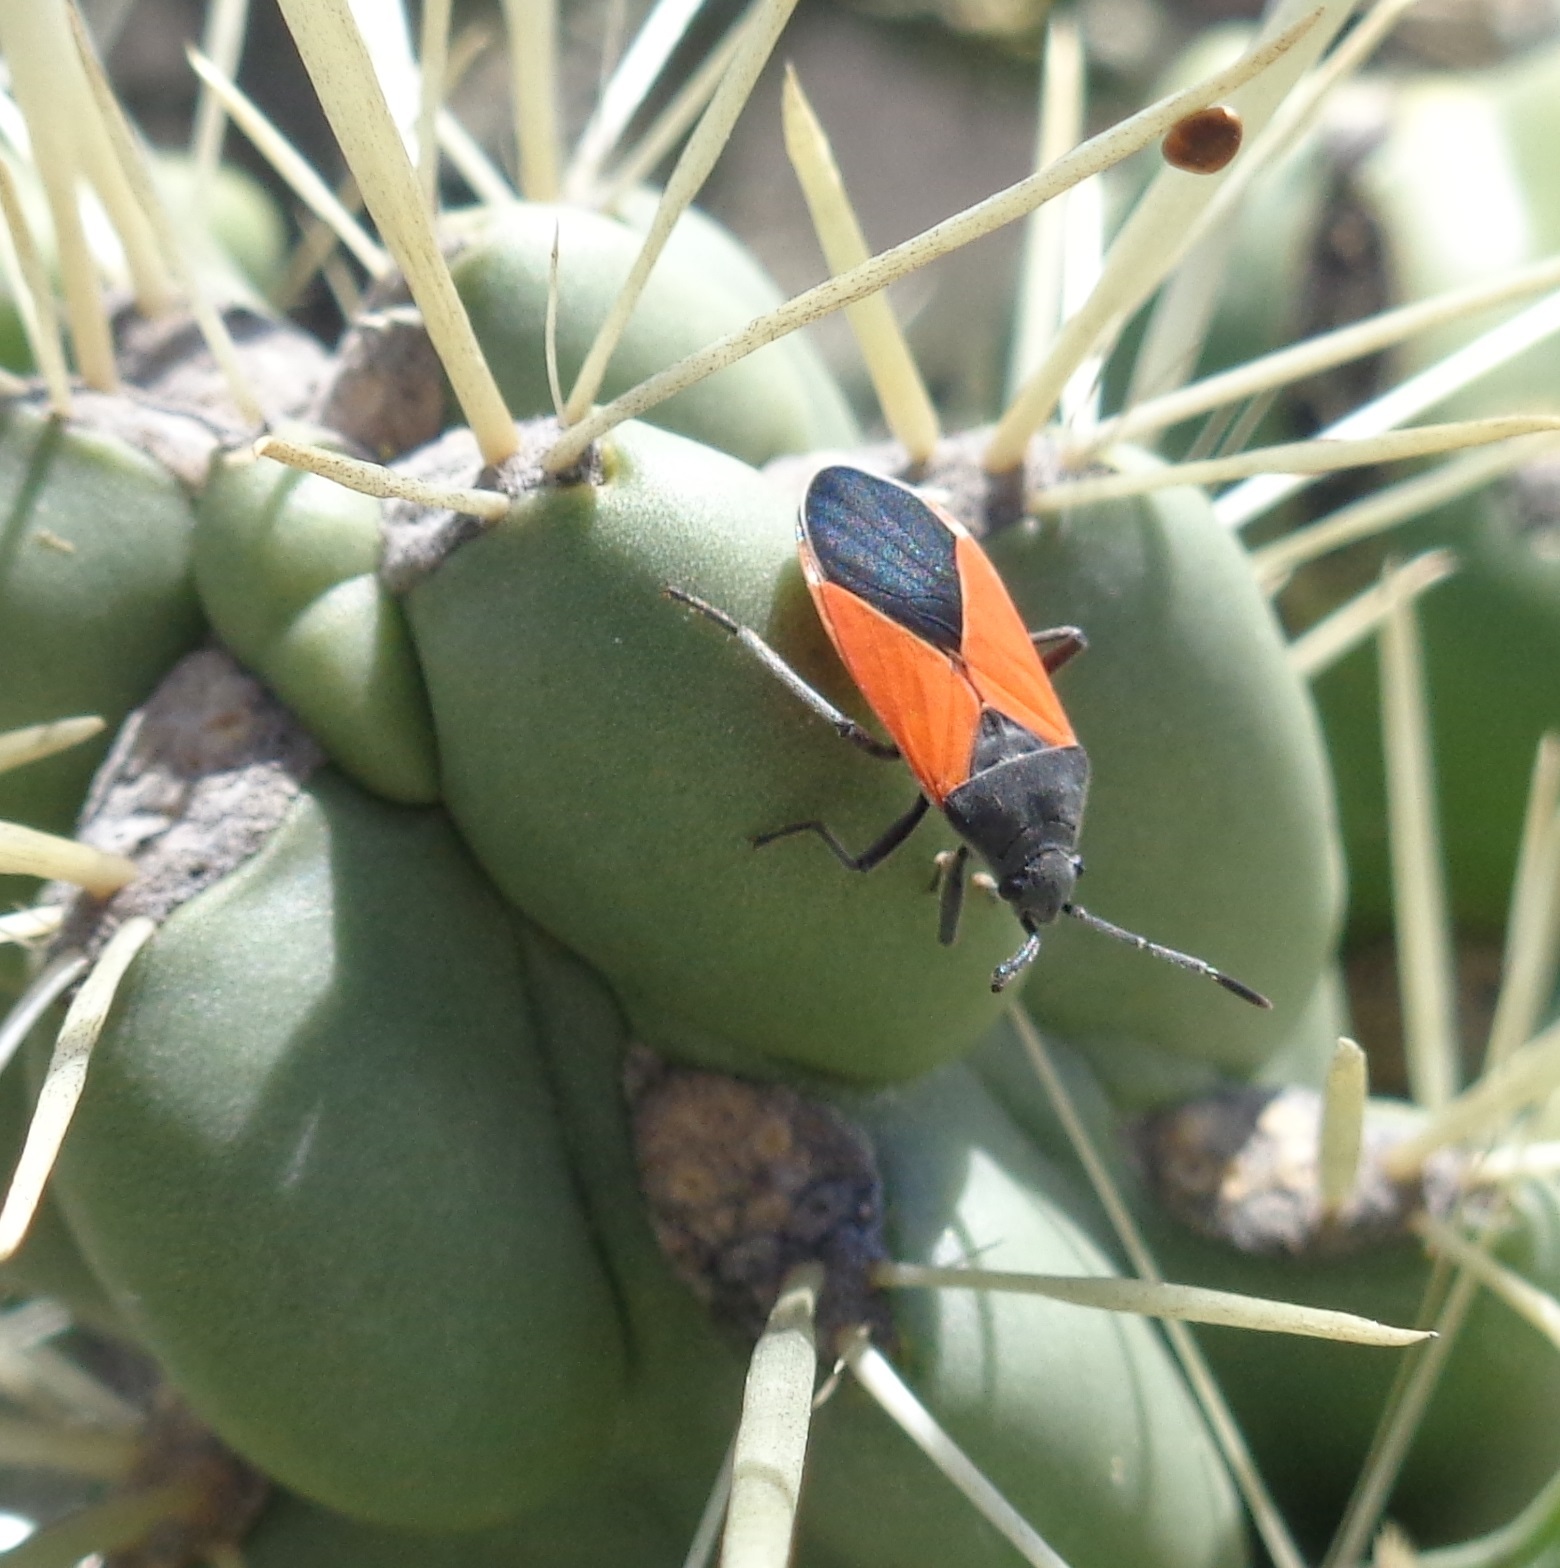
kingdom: Animalia
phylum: Arthropoda
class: Insecta
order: Hemiptera
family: Lygaeidae
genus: Melanopleurus
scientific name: Melanopleurus belfragei
